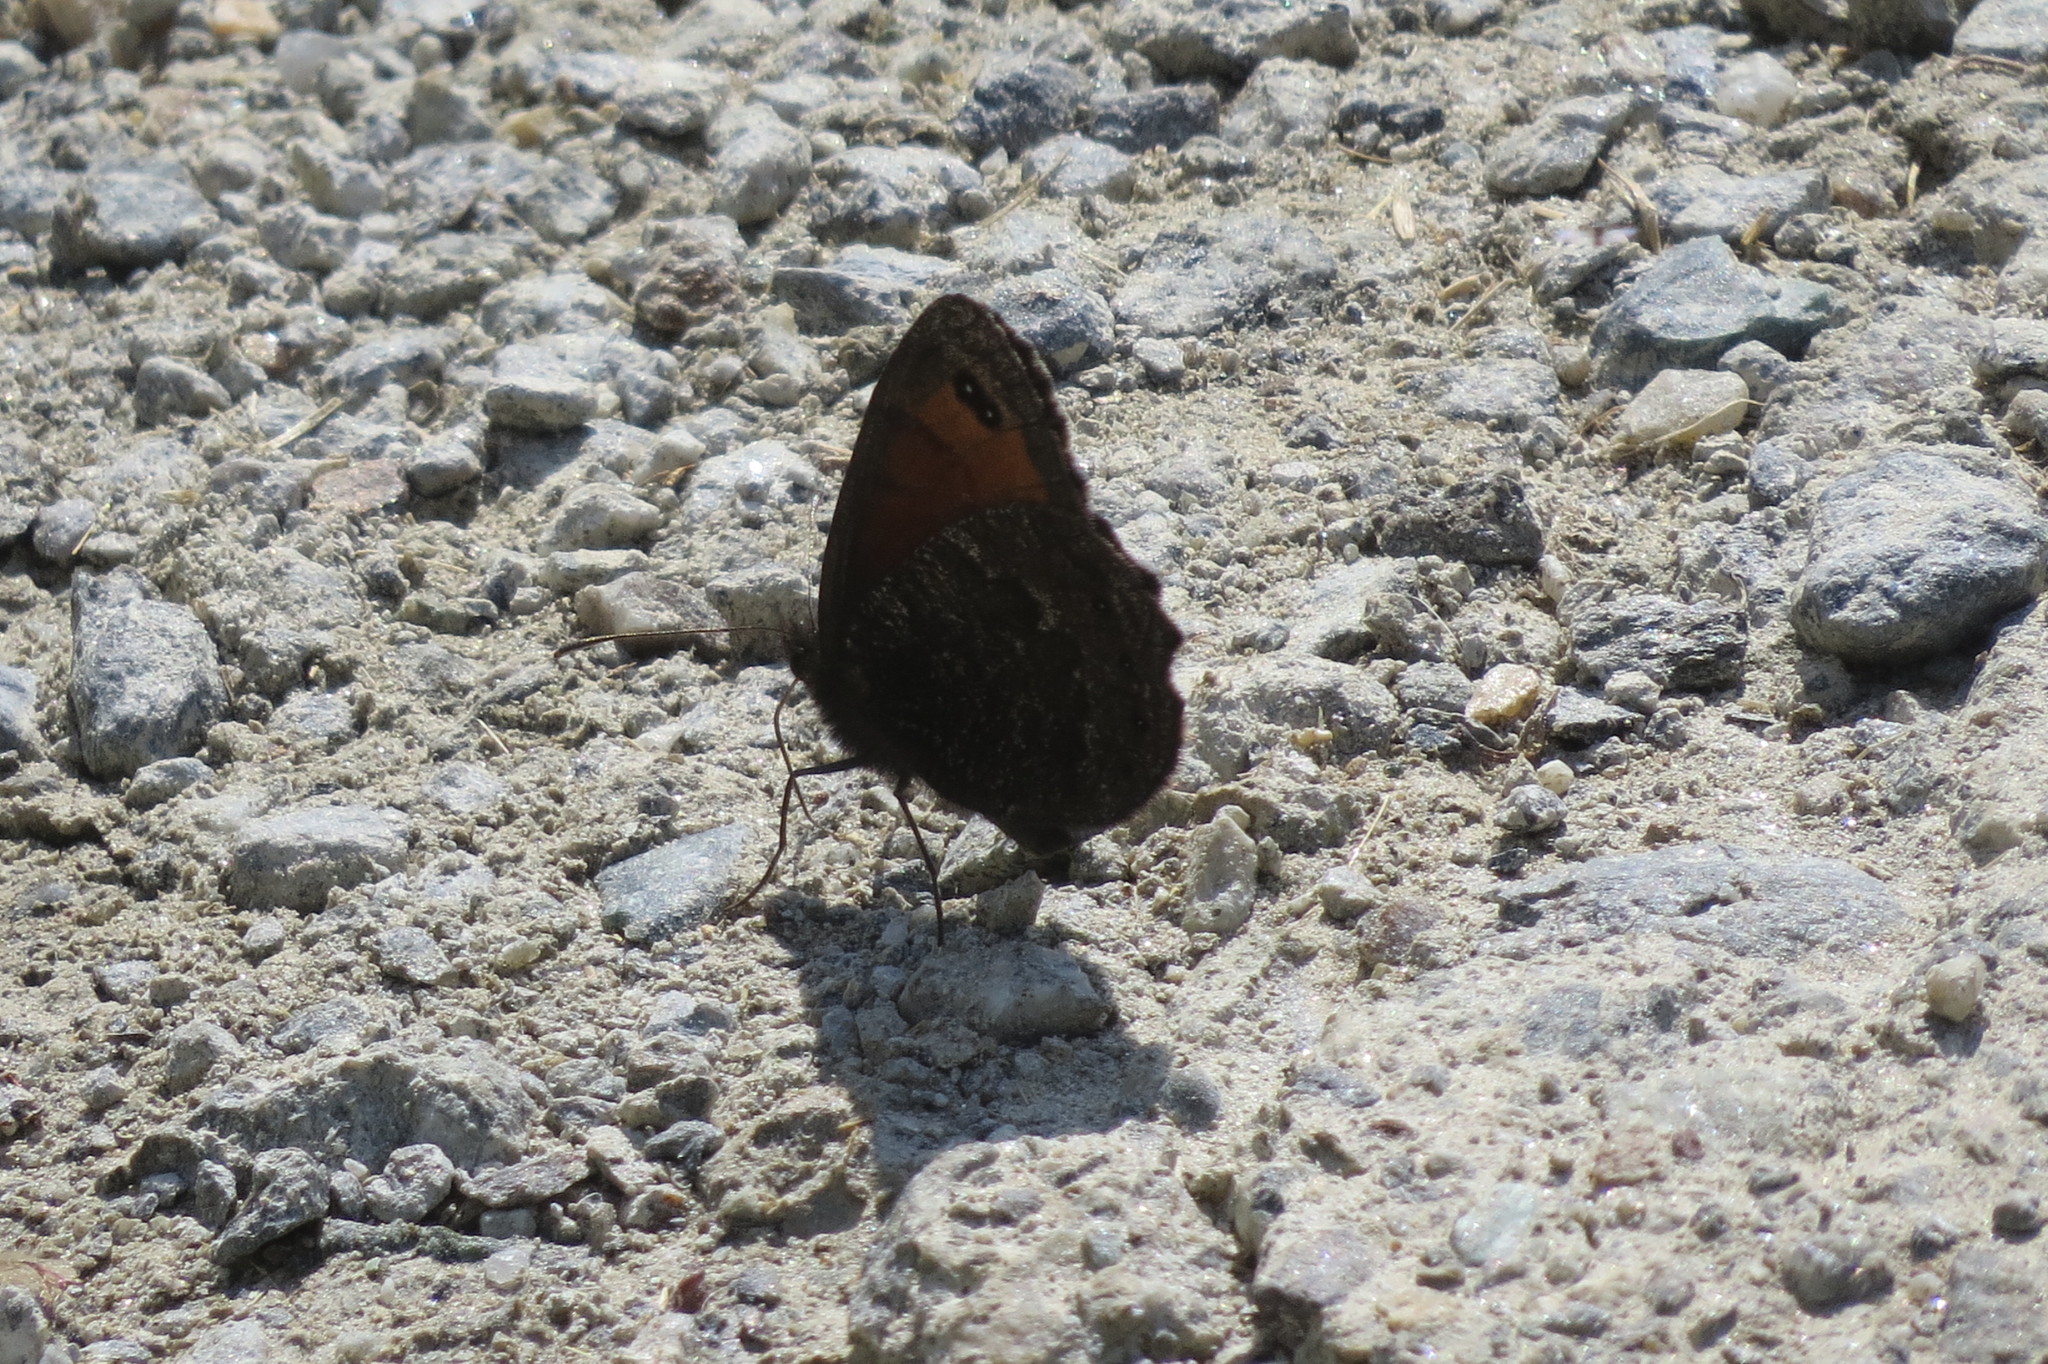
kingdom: Animalia
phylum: Arthropoda
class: Insecta
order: Lepidoptera
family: Nymphalidae
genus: Erebia
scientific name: Erebia montanus
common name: Marbled ringlet
